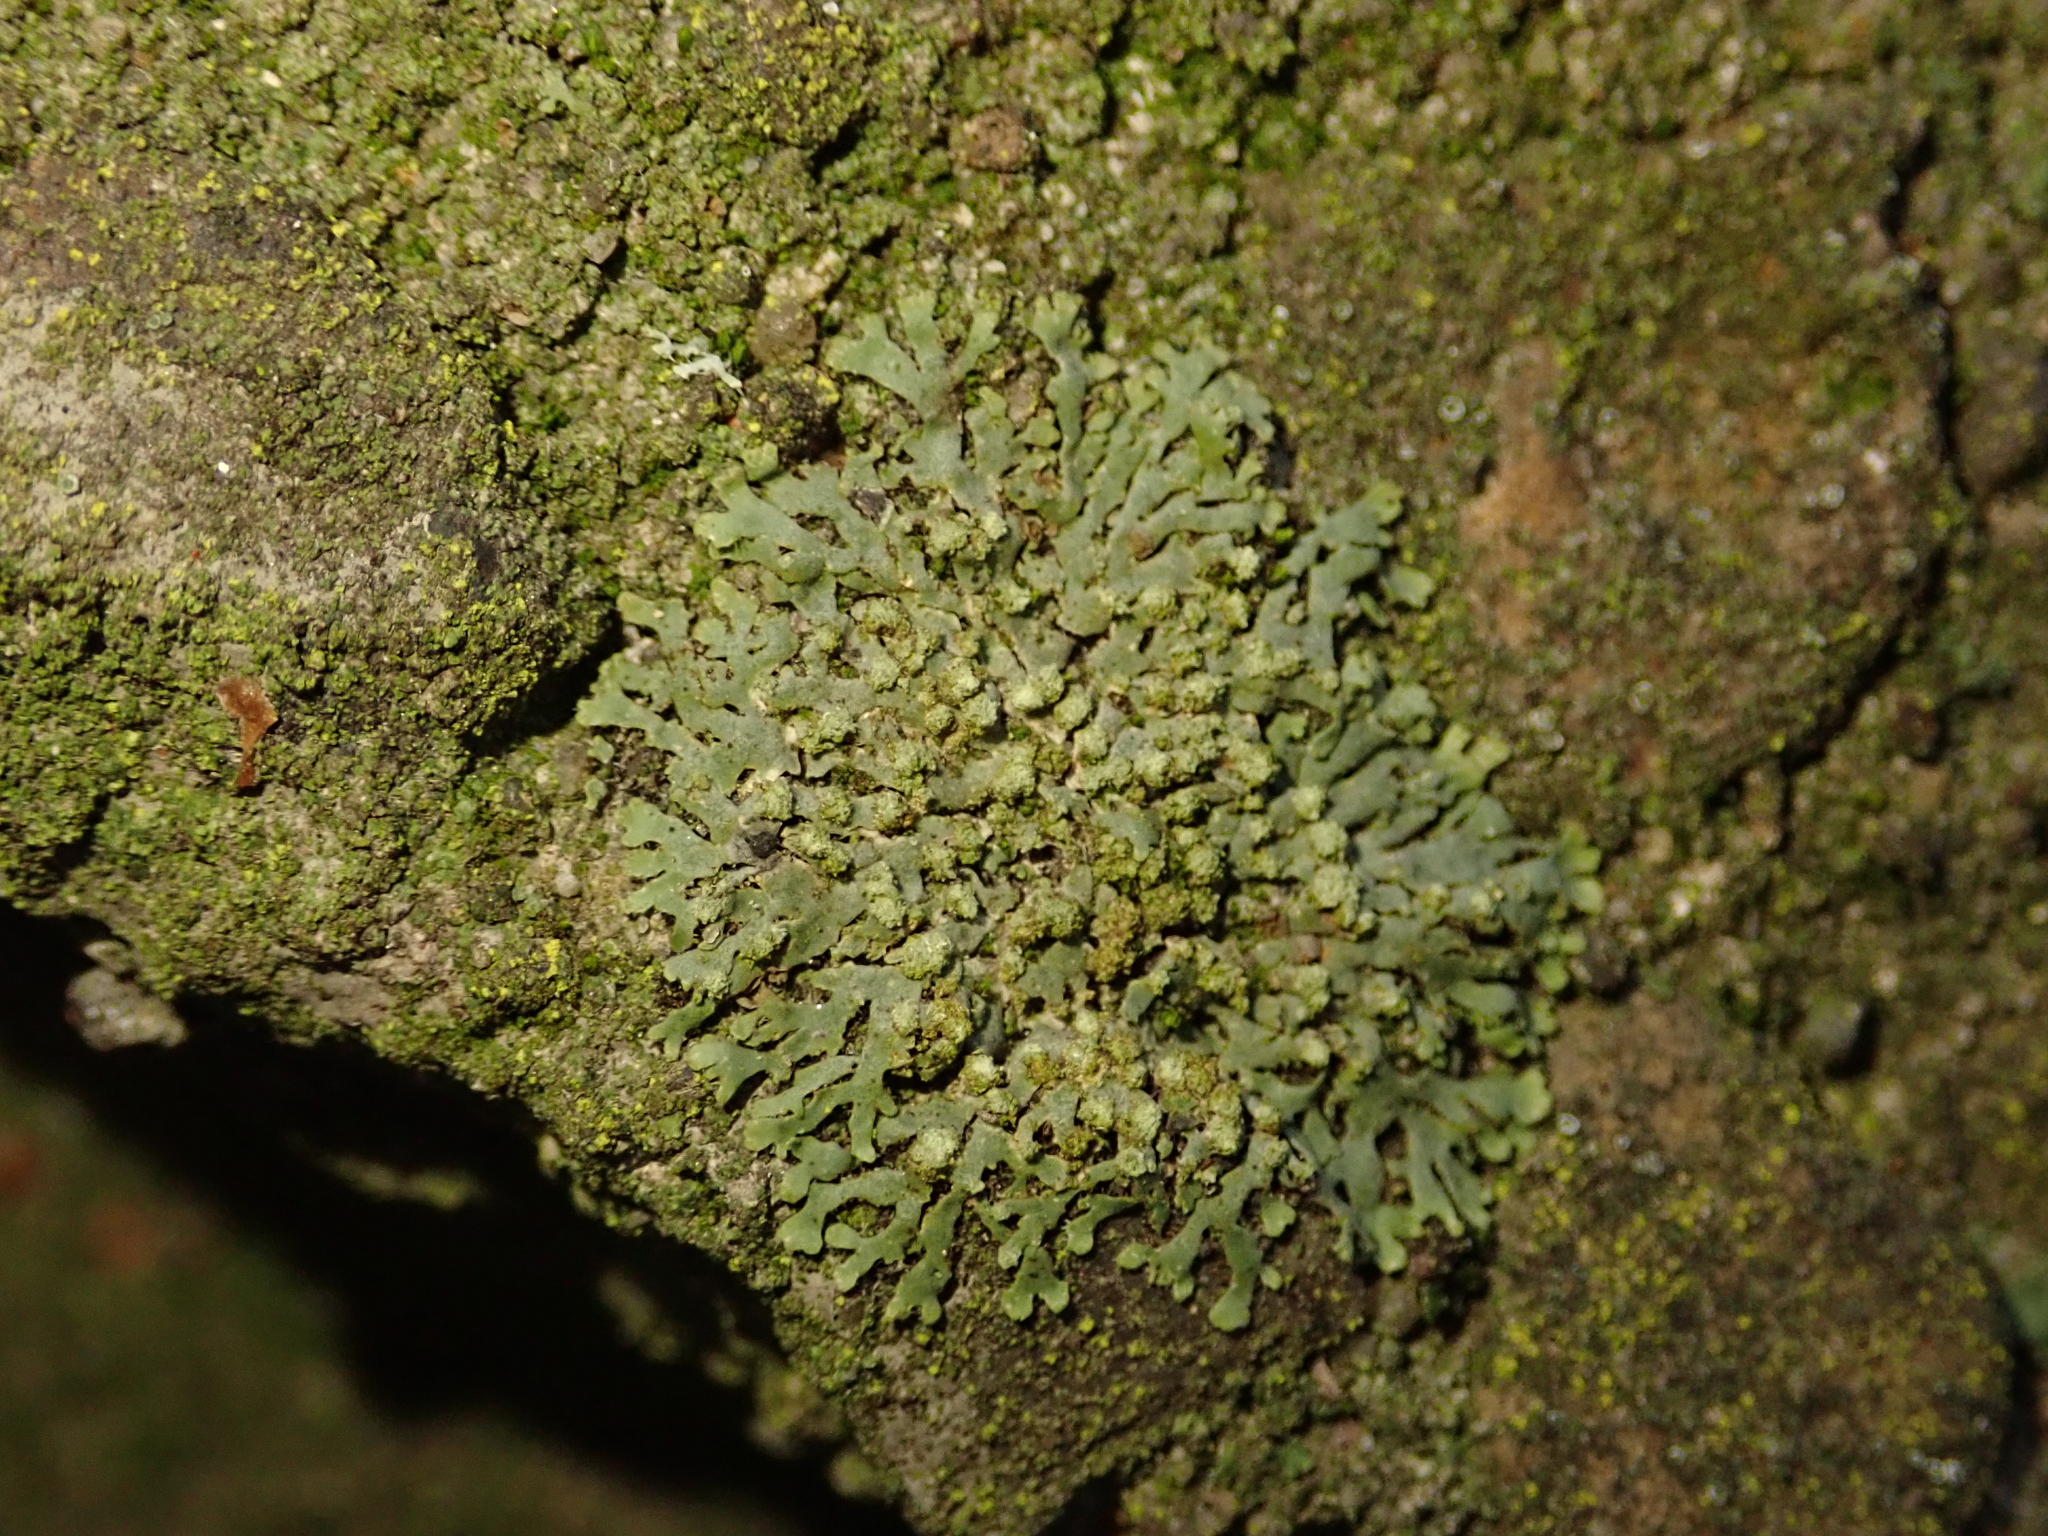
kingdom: Fungi
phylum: Ascomycota
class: Lecanoromycetes
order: Caliciales
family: Physciaceae
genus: Phaeophyscia
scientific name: Phaeophyscia orbicularis
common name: Mealy shadow lichen
